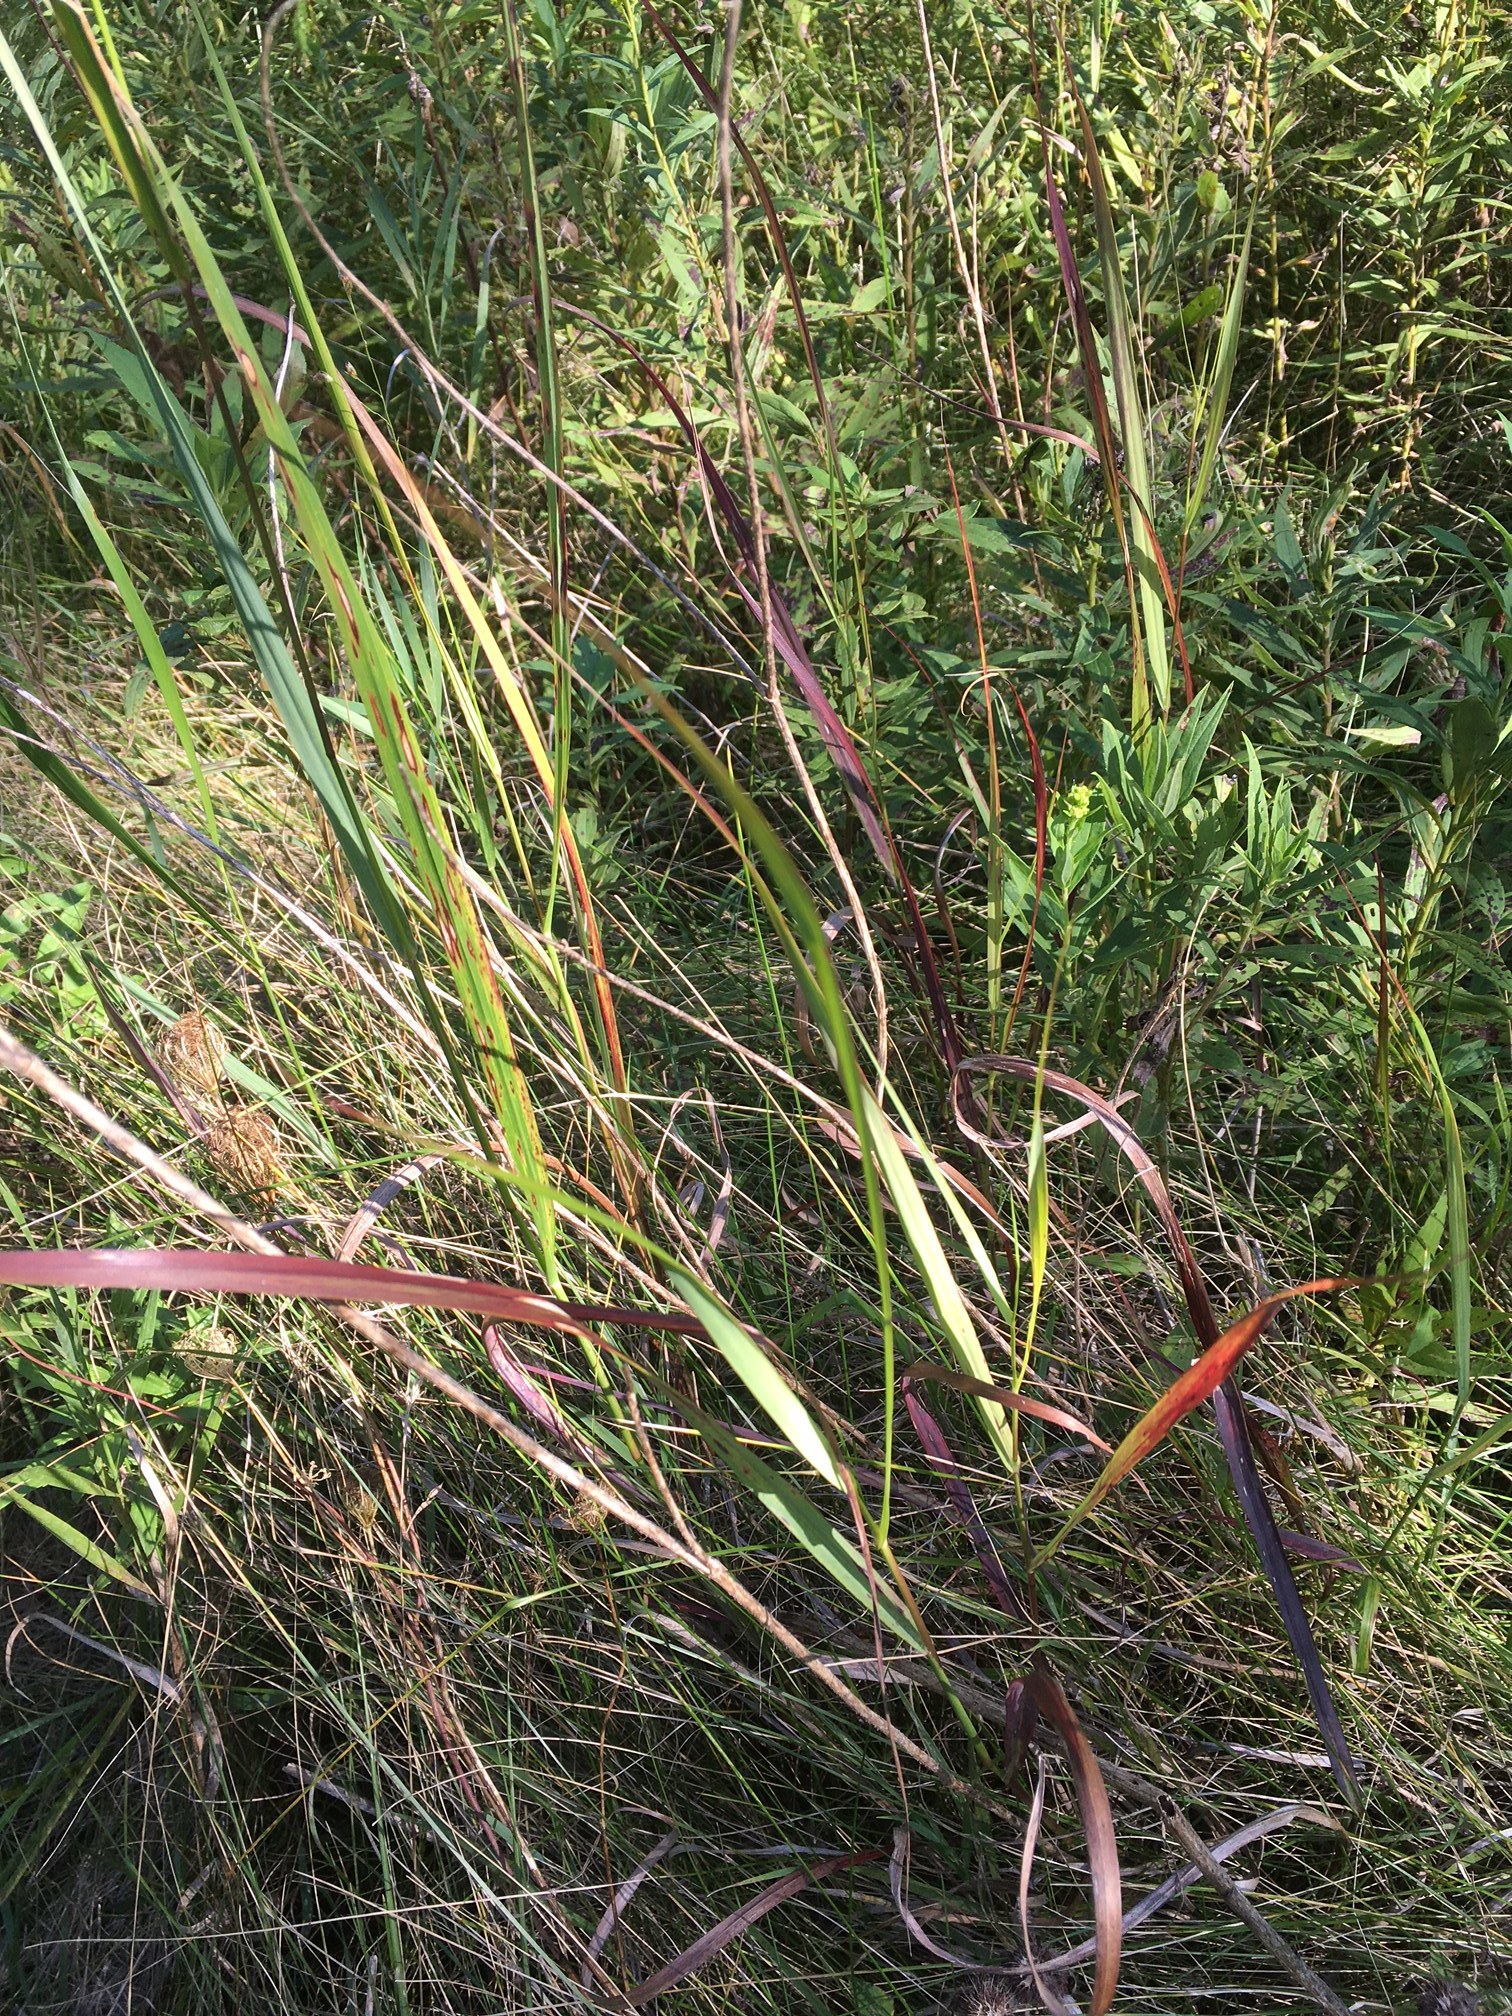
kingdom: Plantae
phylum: Tracheophyta
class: Liliopsida
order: Poales
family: Poaceae
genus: Panicum
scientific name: Panicum virgatum
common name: Switchgrass
